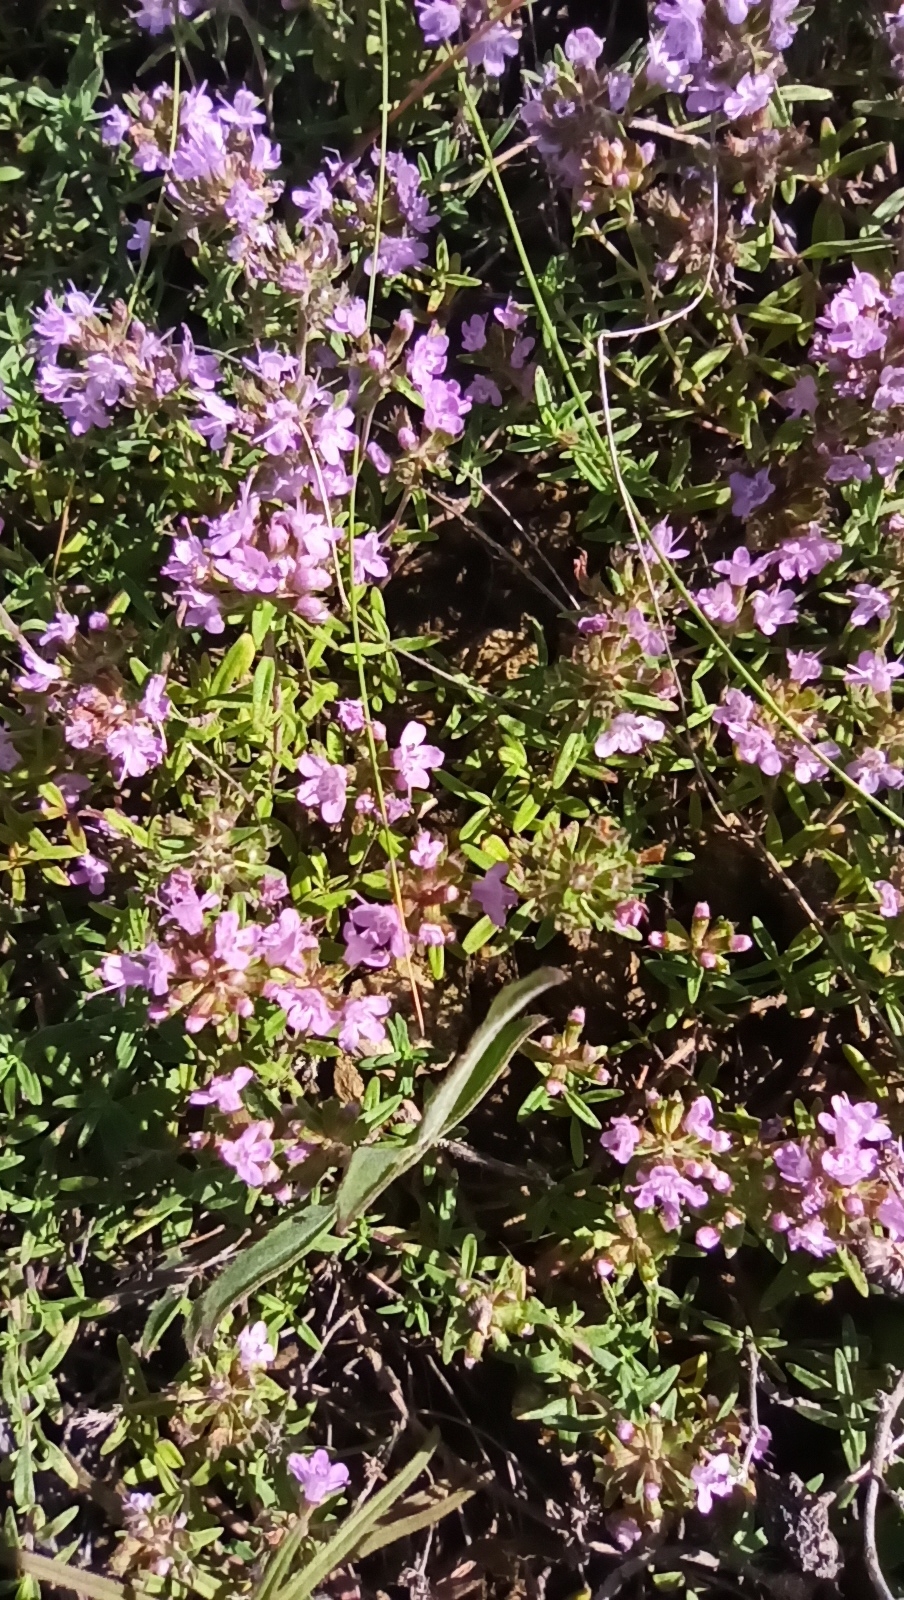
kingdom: Plantae
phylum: Tracheophyta
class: Magnoliopsida
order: Lamiales
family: Lamiaceae
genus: Thymus
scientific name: Thymus calcareus
